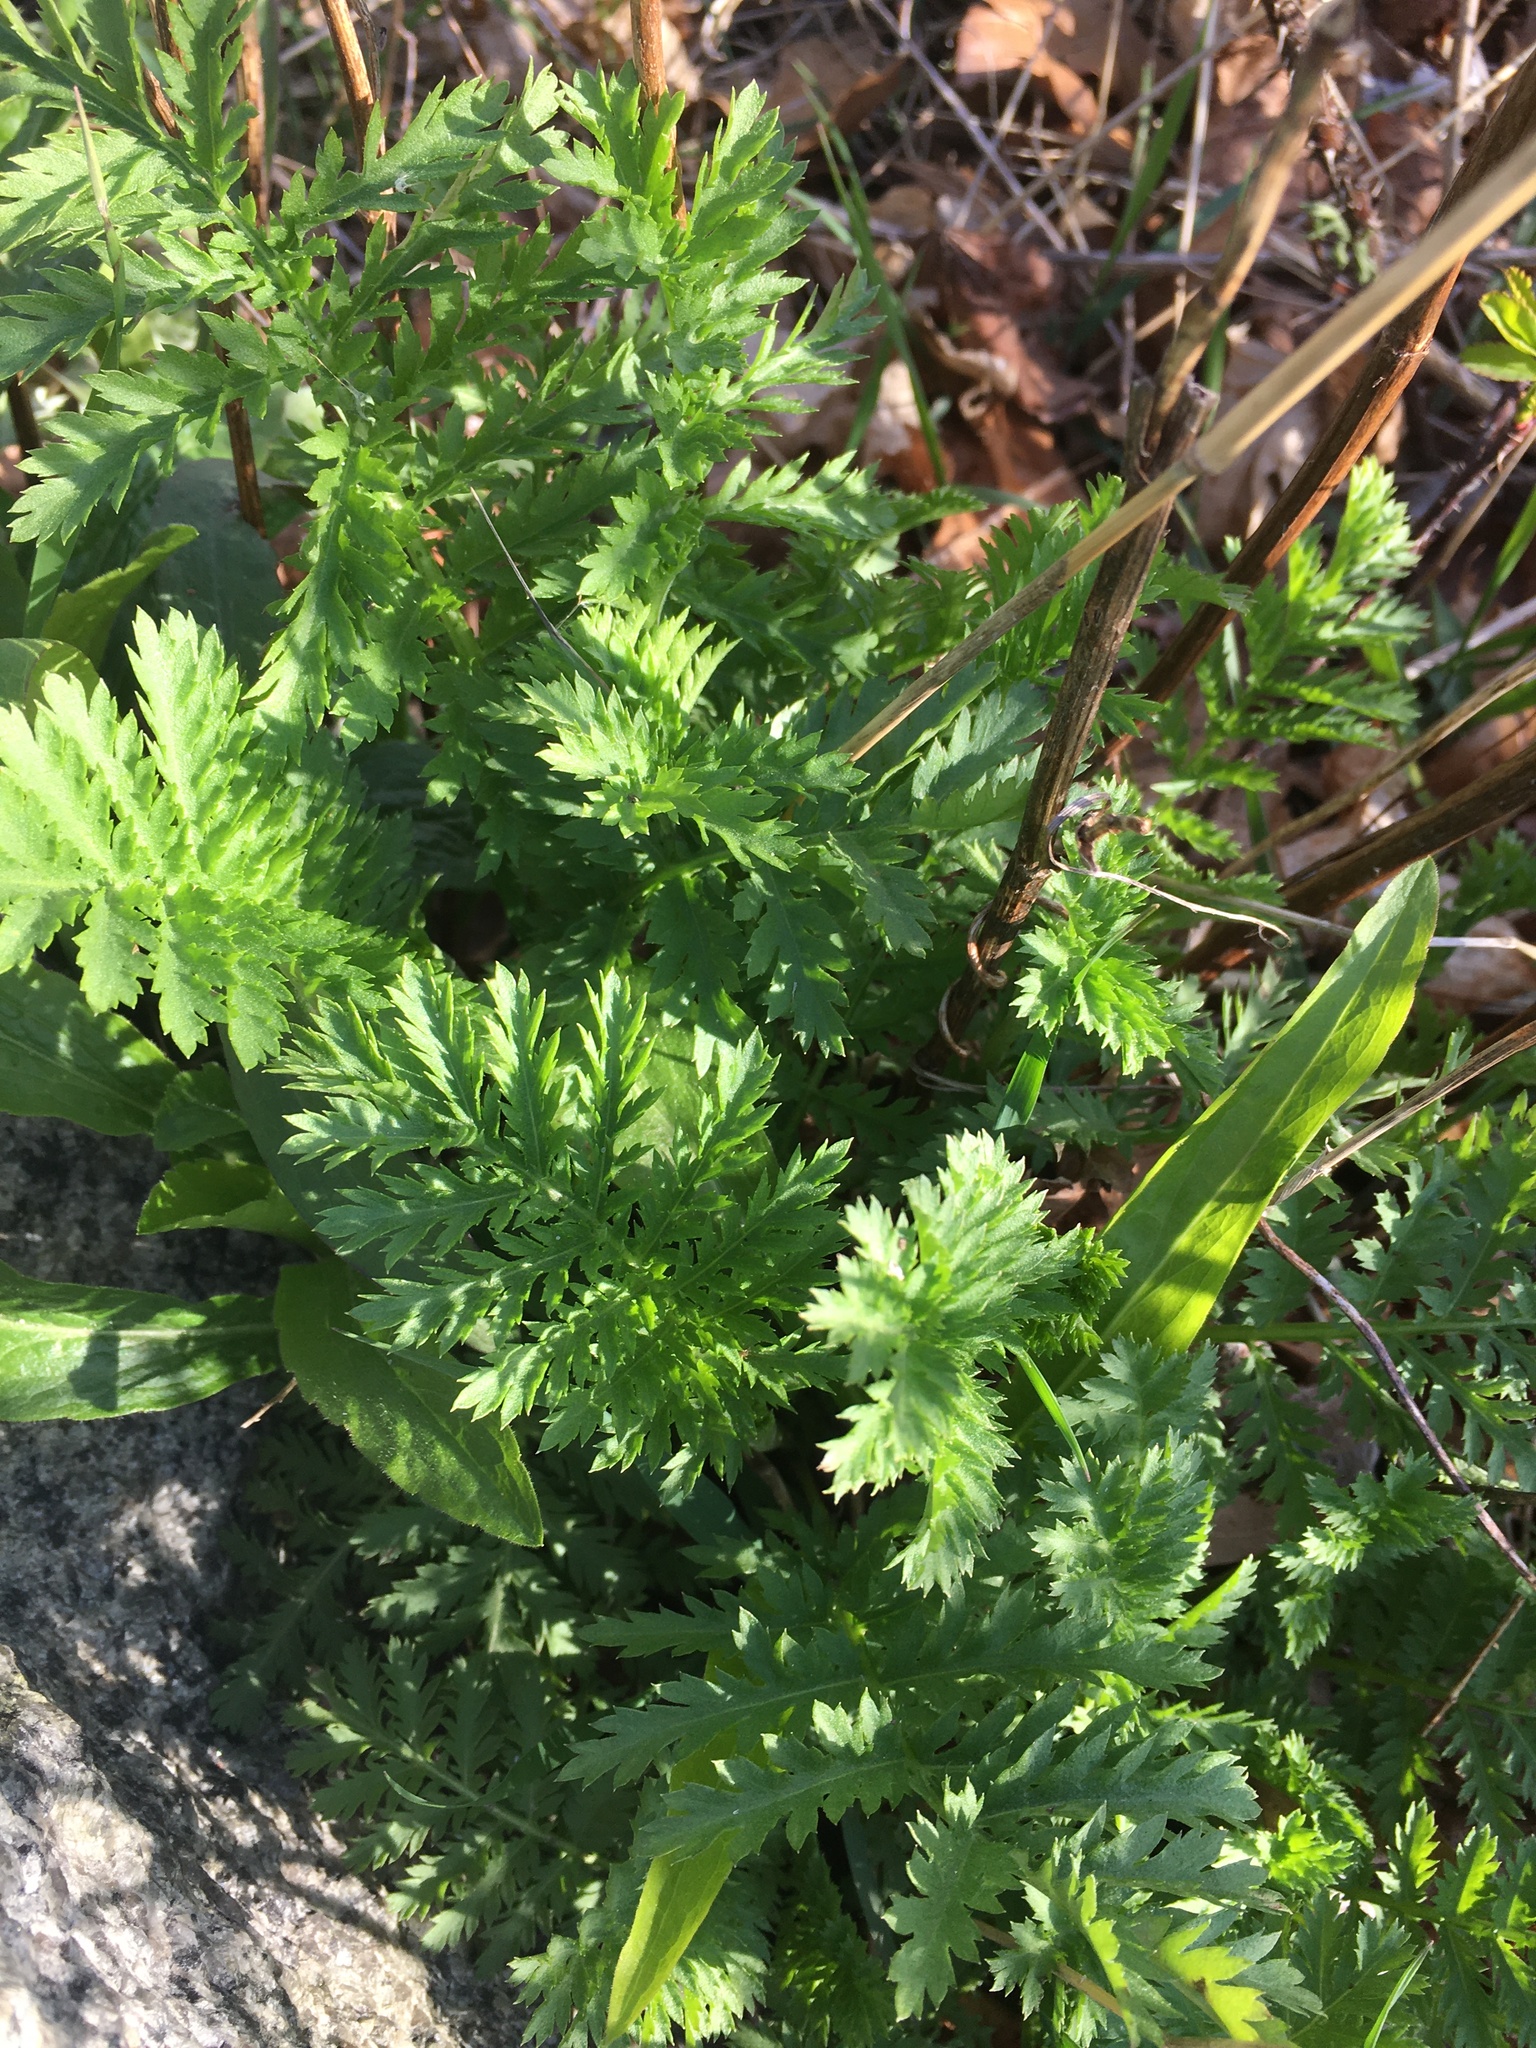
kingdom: Plantae
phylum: Tracheophyta
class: Magnoliopsida
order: Asterales
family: Asteraceae
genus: Tanacetum
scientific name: Tanacetum vulgare
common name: Common tansy
